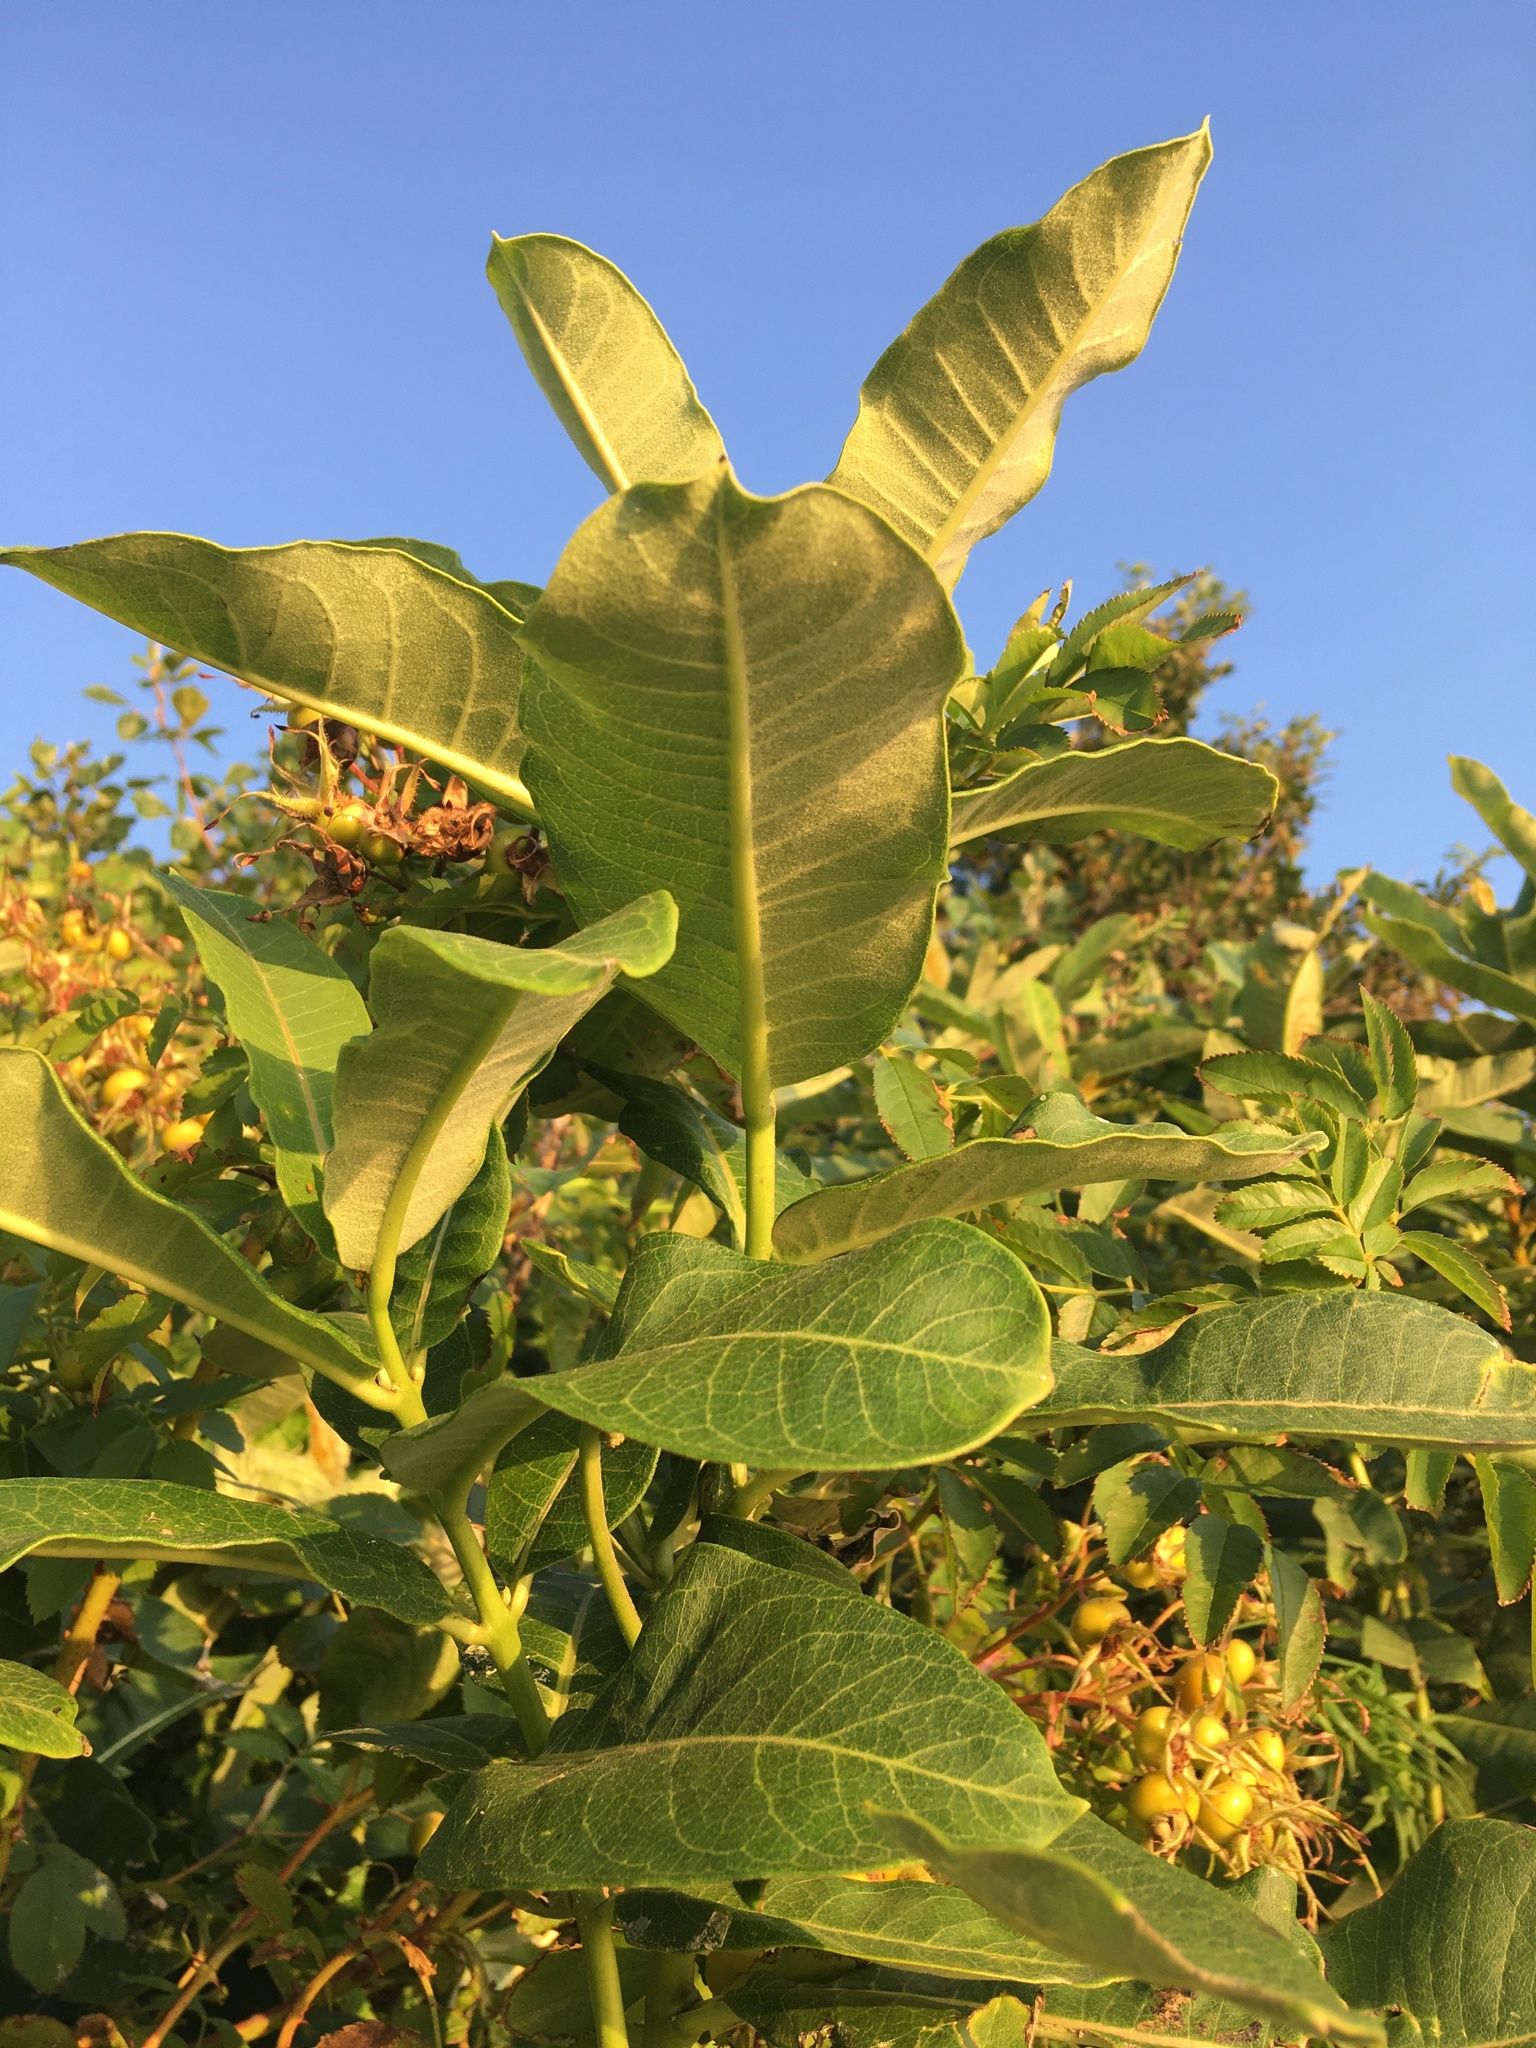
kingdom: Plantae
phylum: Tracheophyta
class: Magnoliopsida
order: Gentianales
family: Apocynaceae
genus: Asclepias
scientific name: Asclepias syriaca
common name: Common milkweed
